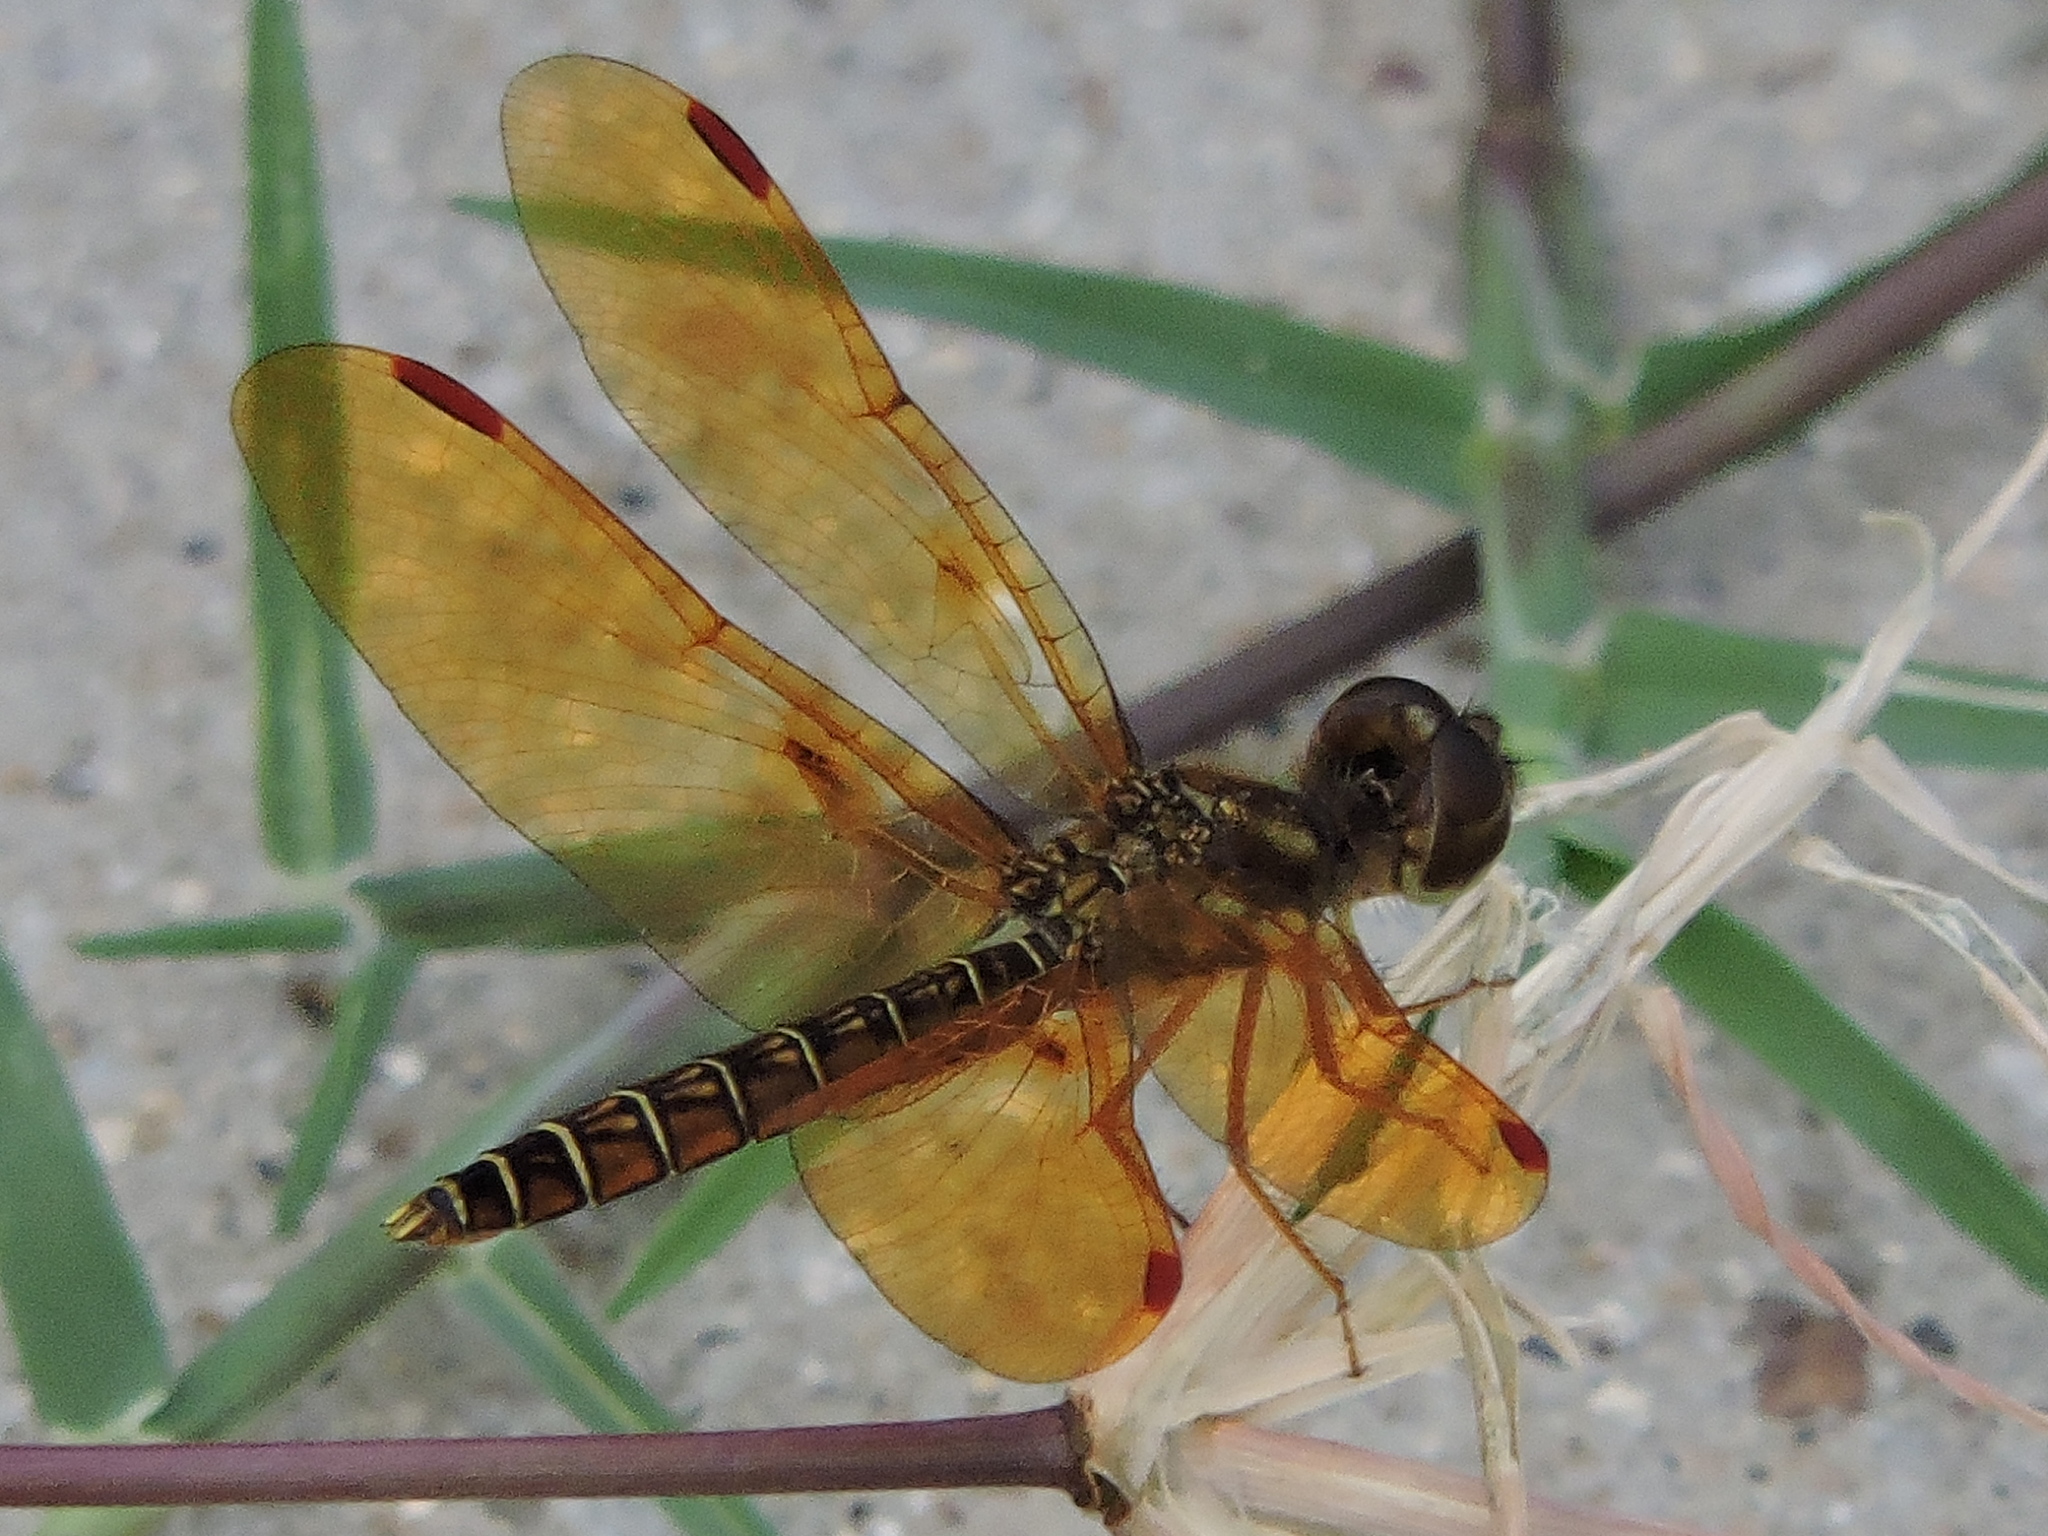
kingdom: Animalia
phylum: Arthropoda
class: Insecta
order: Odonata
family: Libellulidae
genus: Perithemis
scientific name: Perithemis tenera
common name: Eastern amberwing
